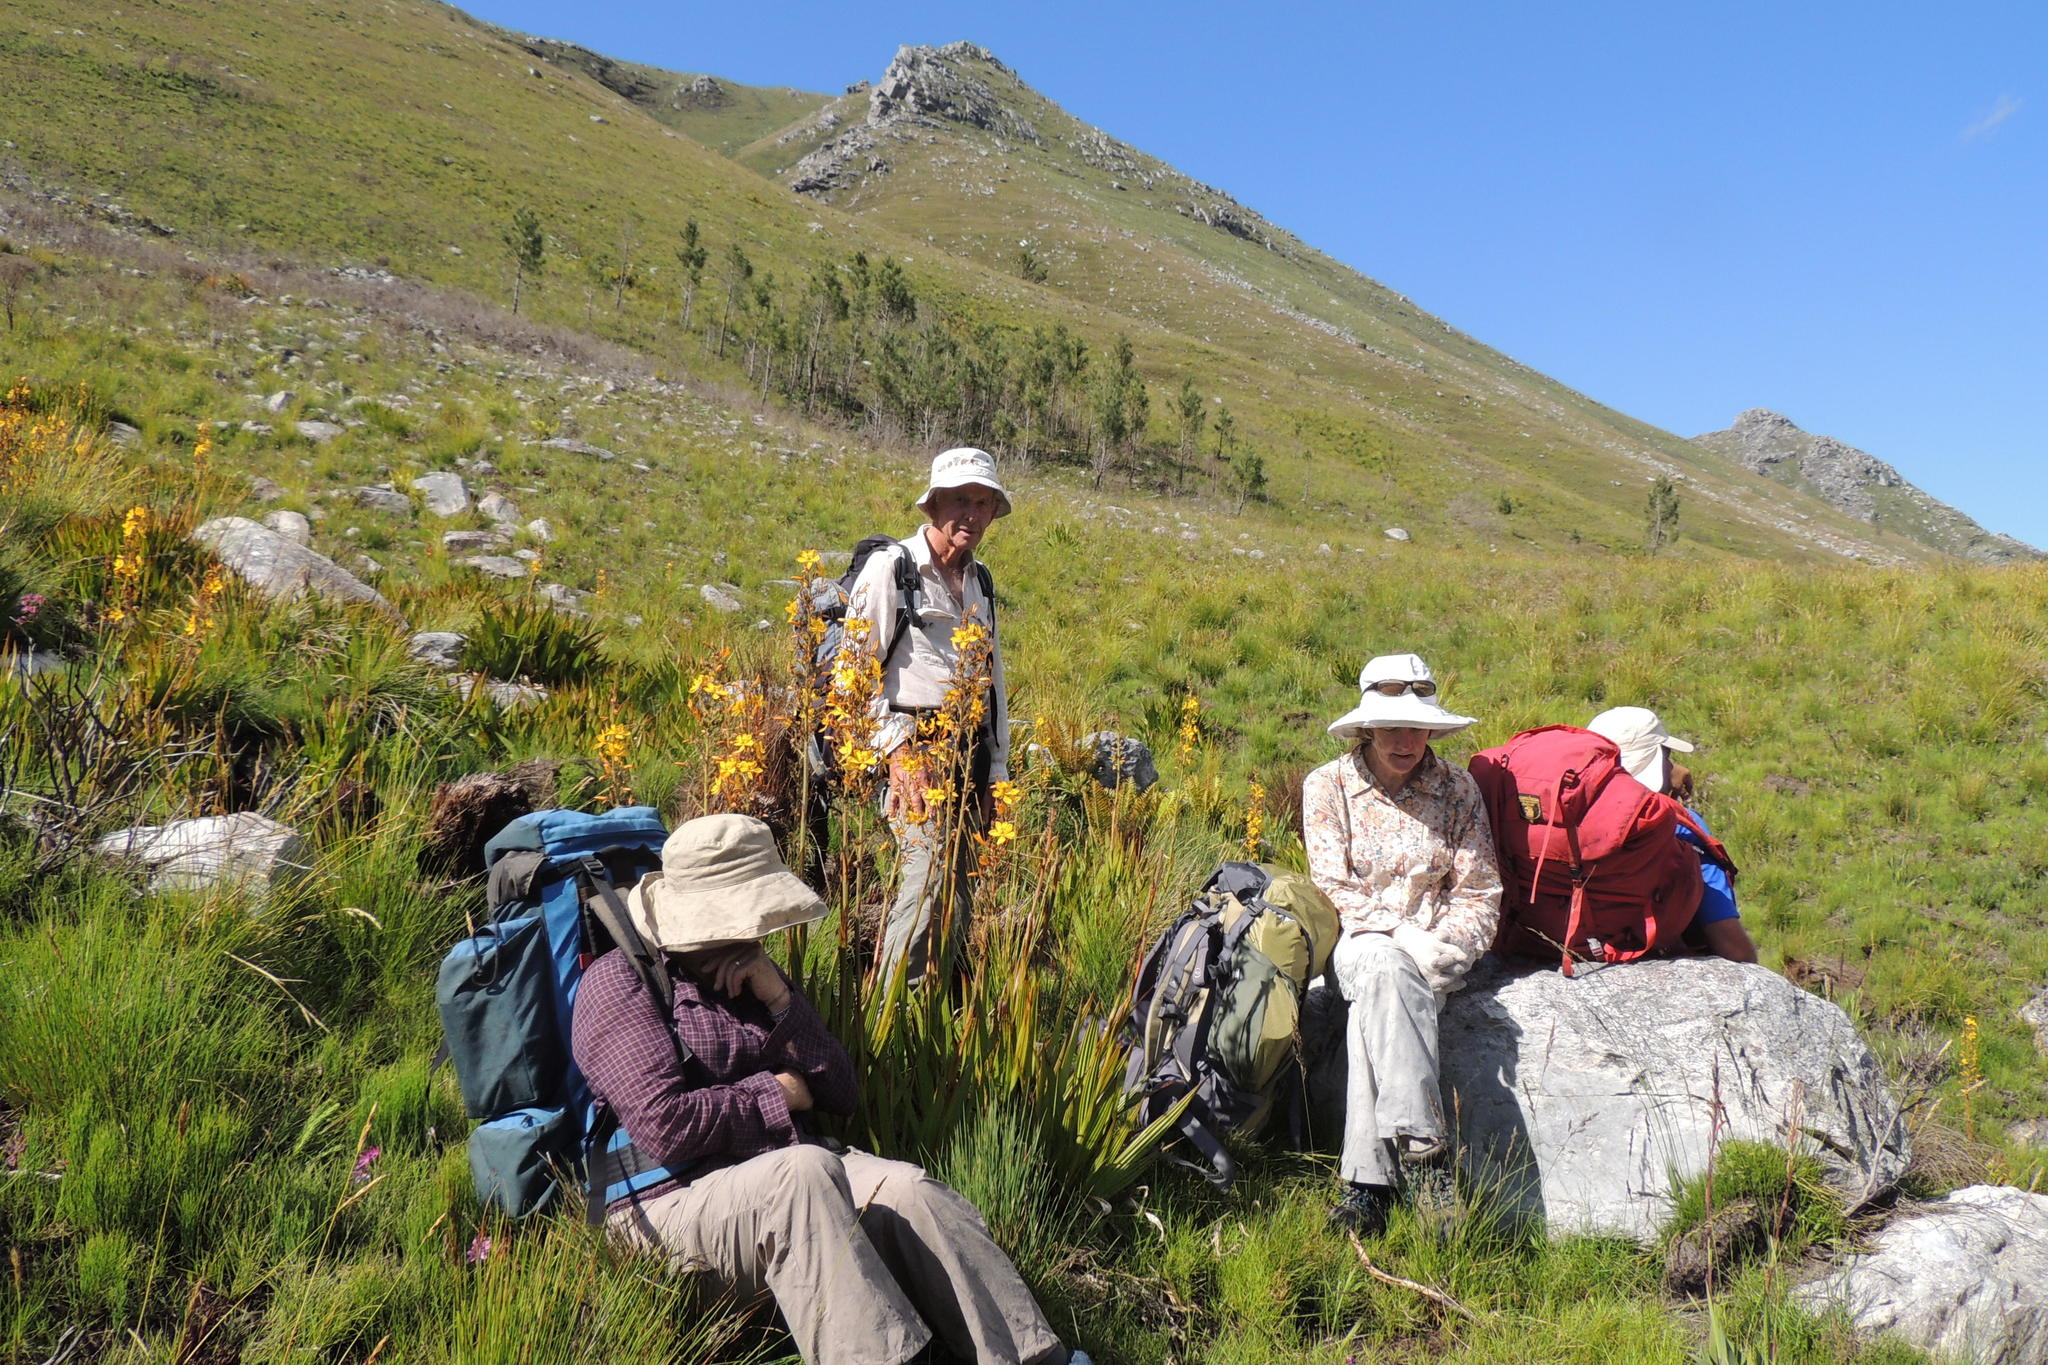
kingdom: Plantae
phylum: Tracheophyta
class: Liliopsida
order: Commelinales
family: Haemodoraceae
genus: Wachendorfia
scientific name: Wachendorfia thyrsiflora
